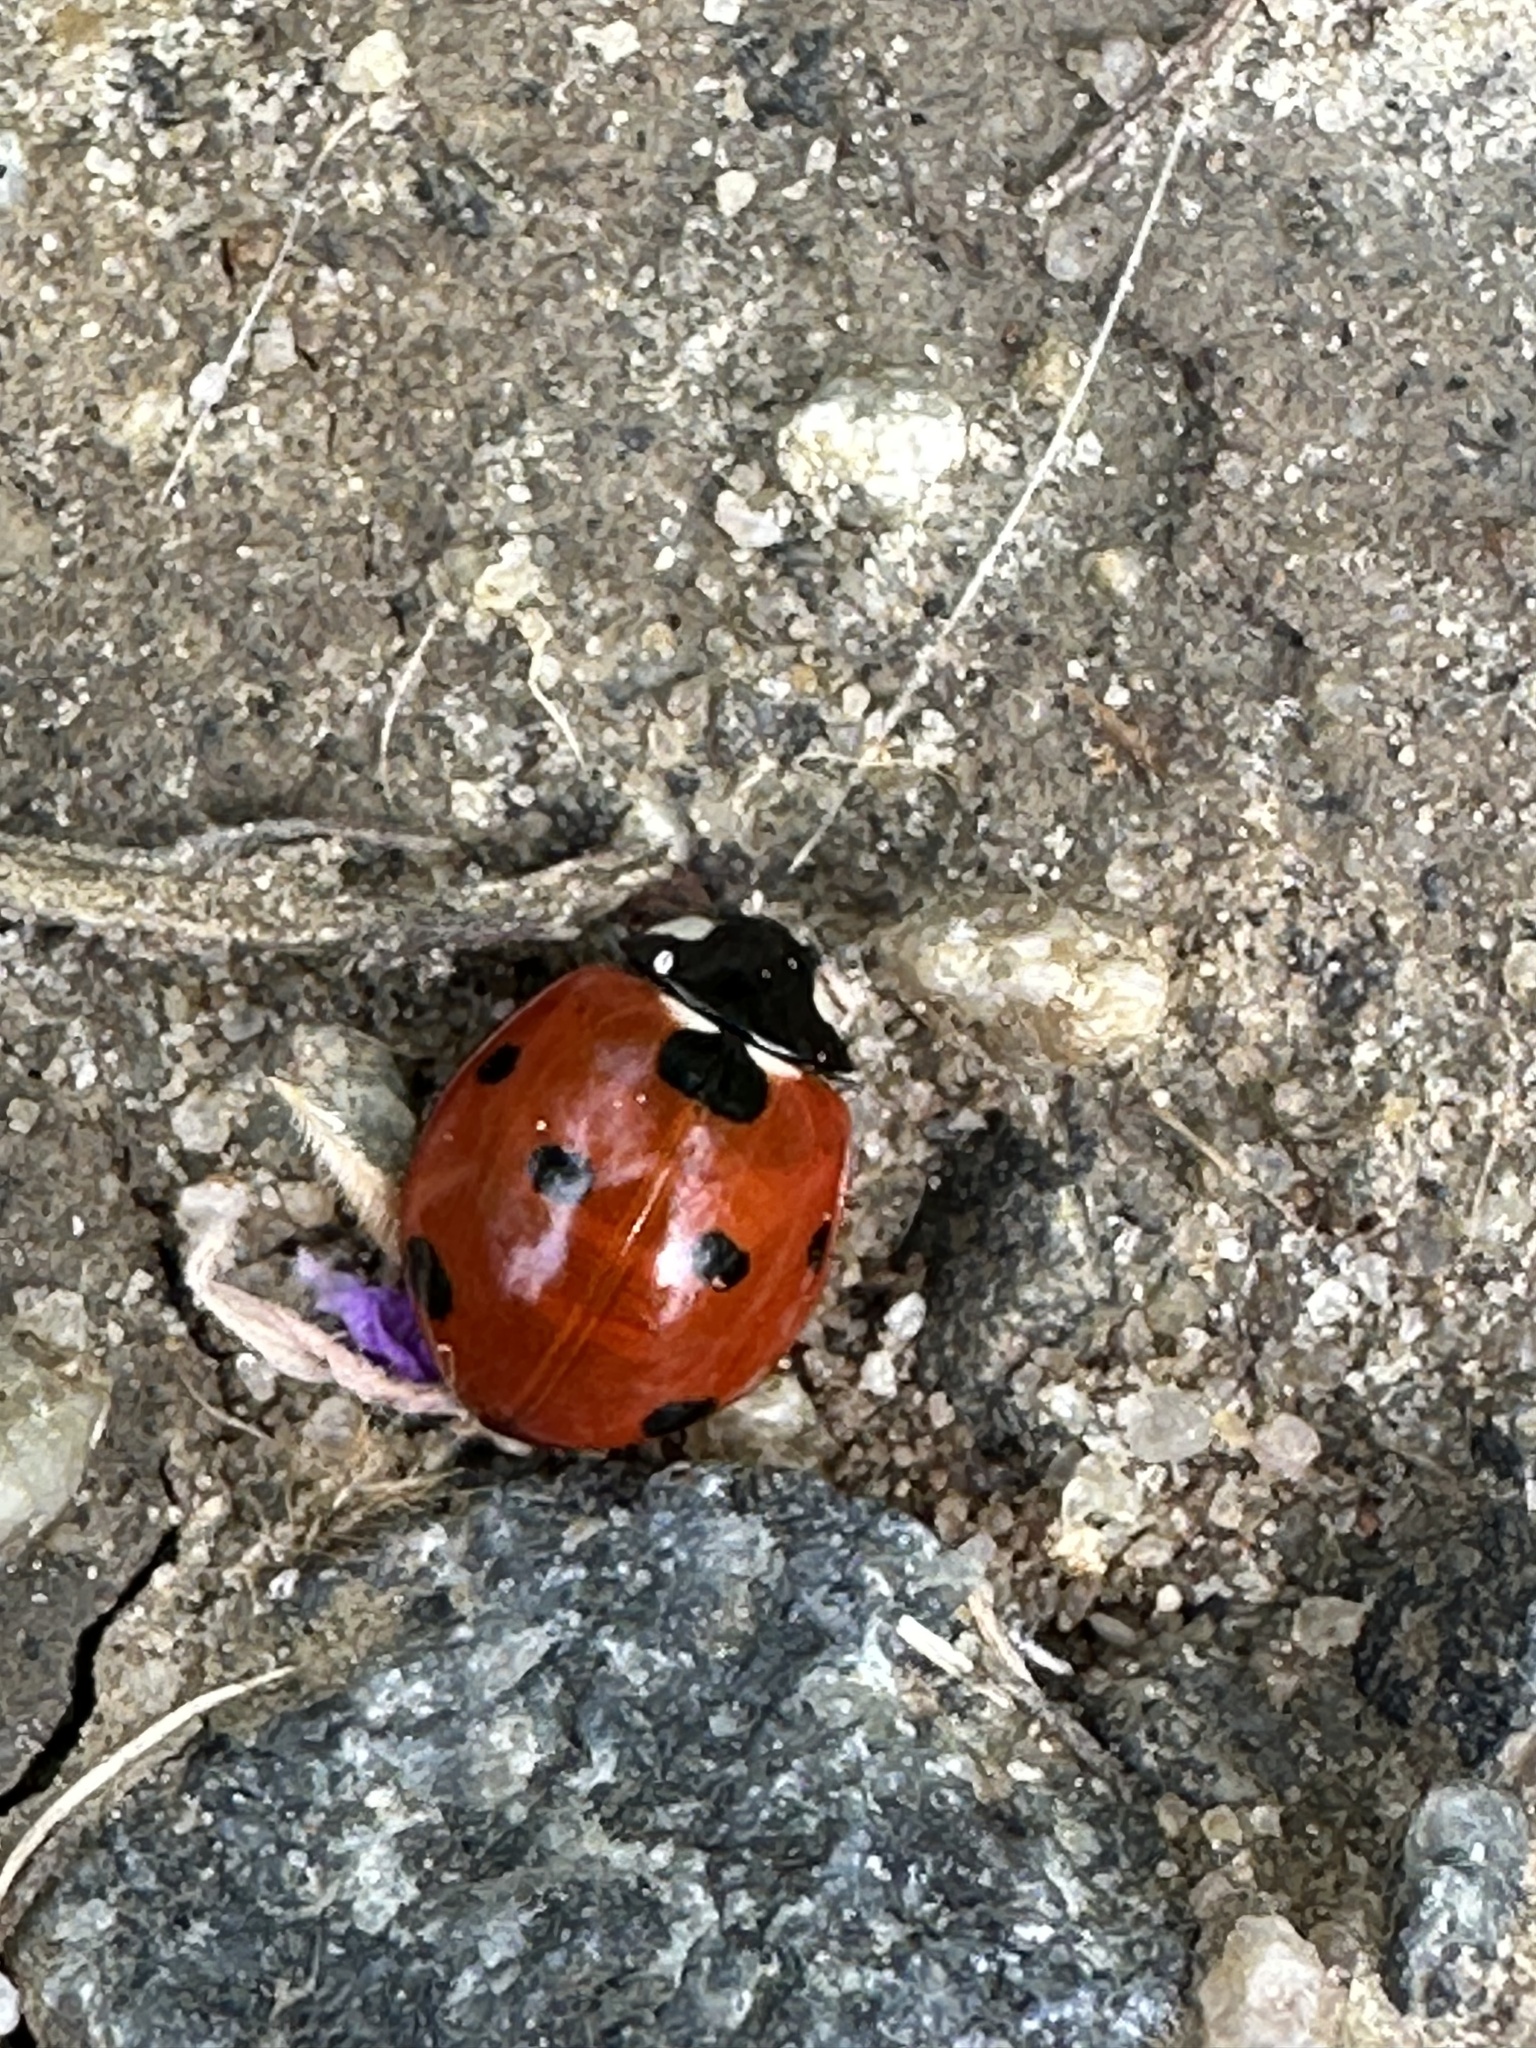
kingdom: Animalia
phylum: Arthropoda
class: Insecta
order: Coleoptera
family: Coccinellidae
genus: Coccinella
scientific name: Coccinella septempunctata
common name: Sevenspotted lady beetle
